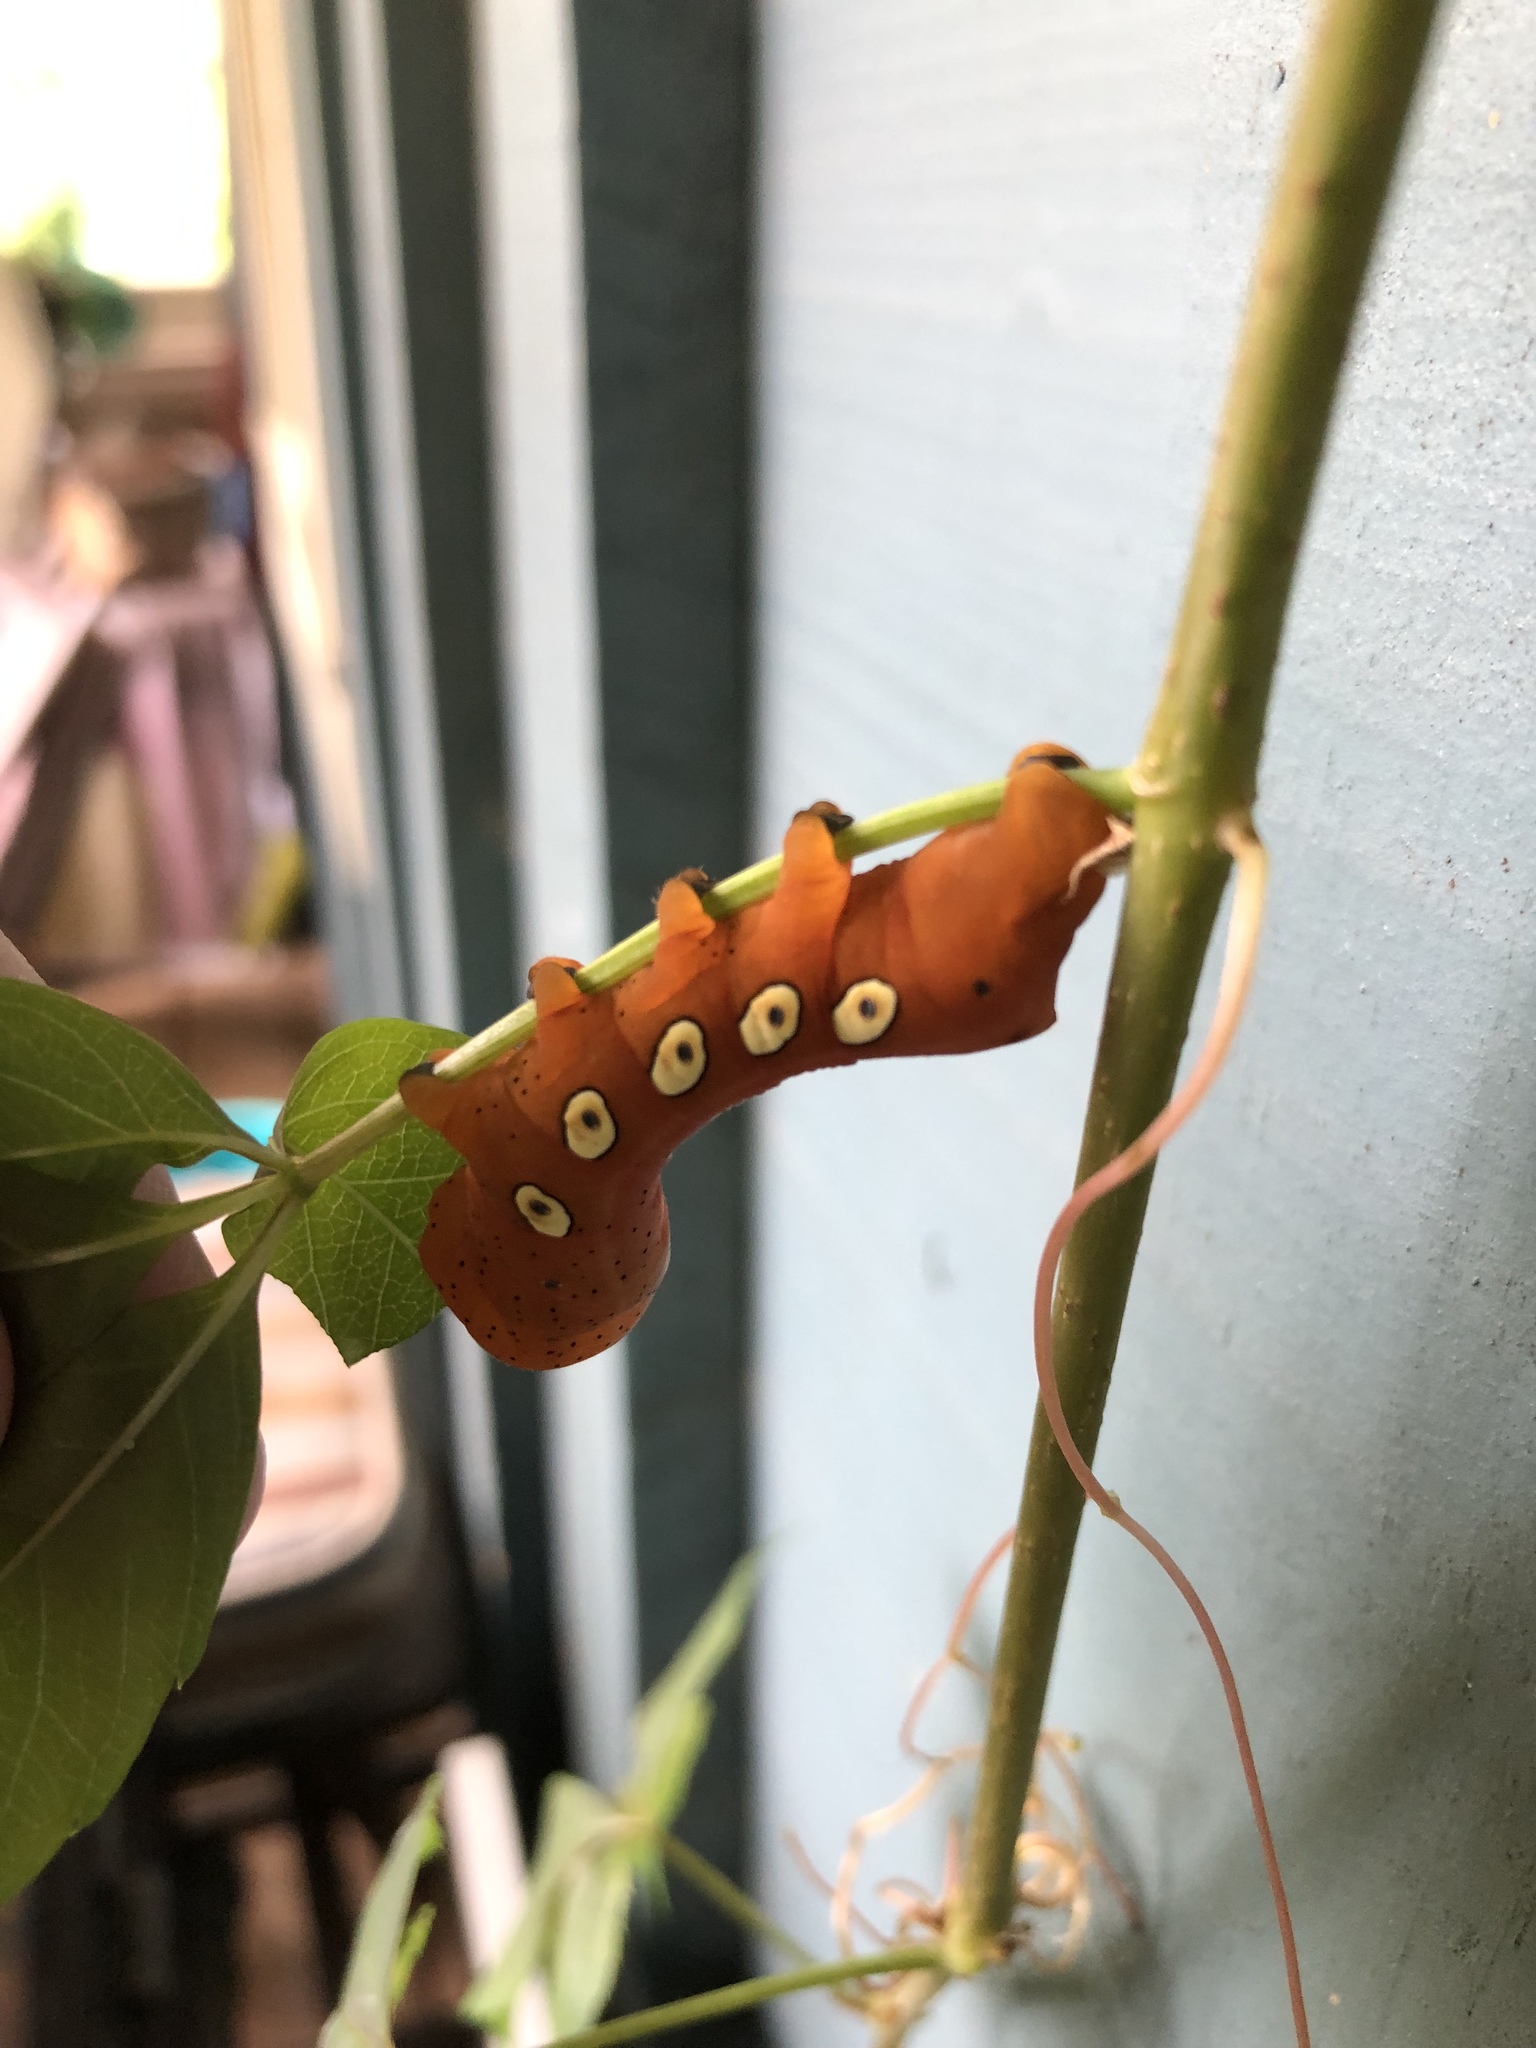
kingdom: Animalia
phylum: Arthropoda
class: Insecta
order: Lepidoptera
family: Sphingidae
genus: Eumorpha
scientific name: Eumorpha pandorus
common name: Pandora sphinx
